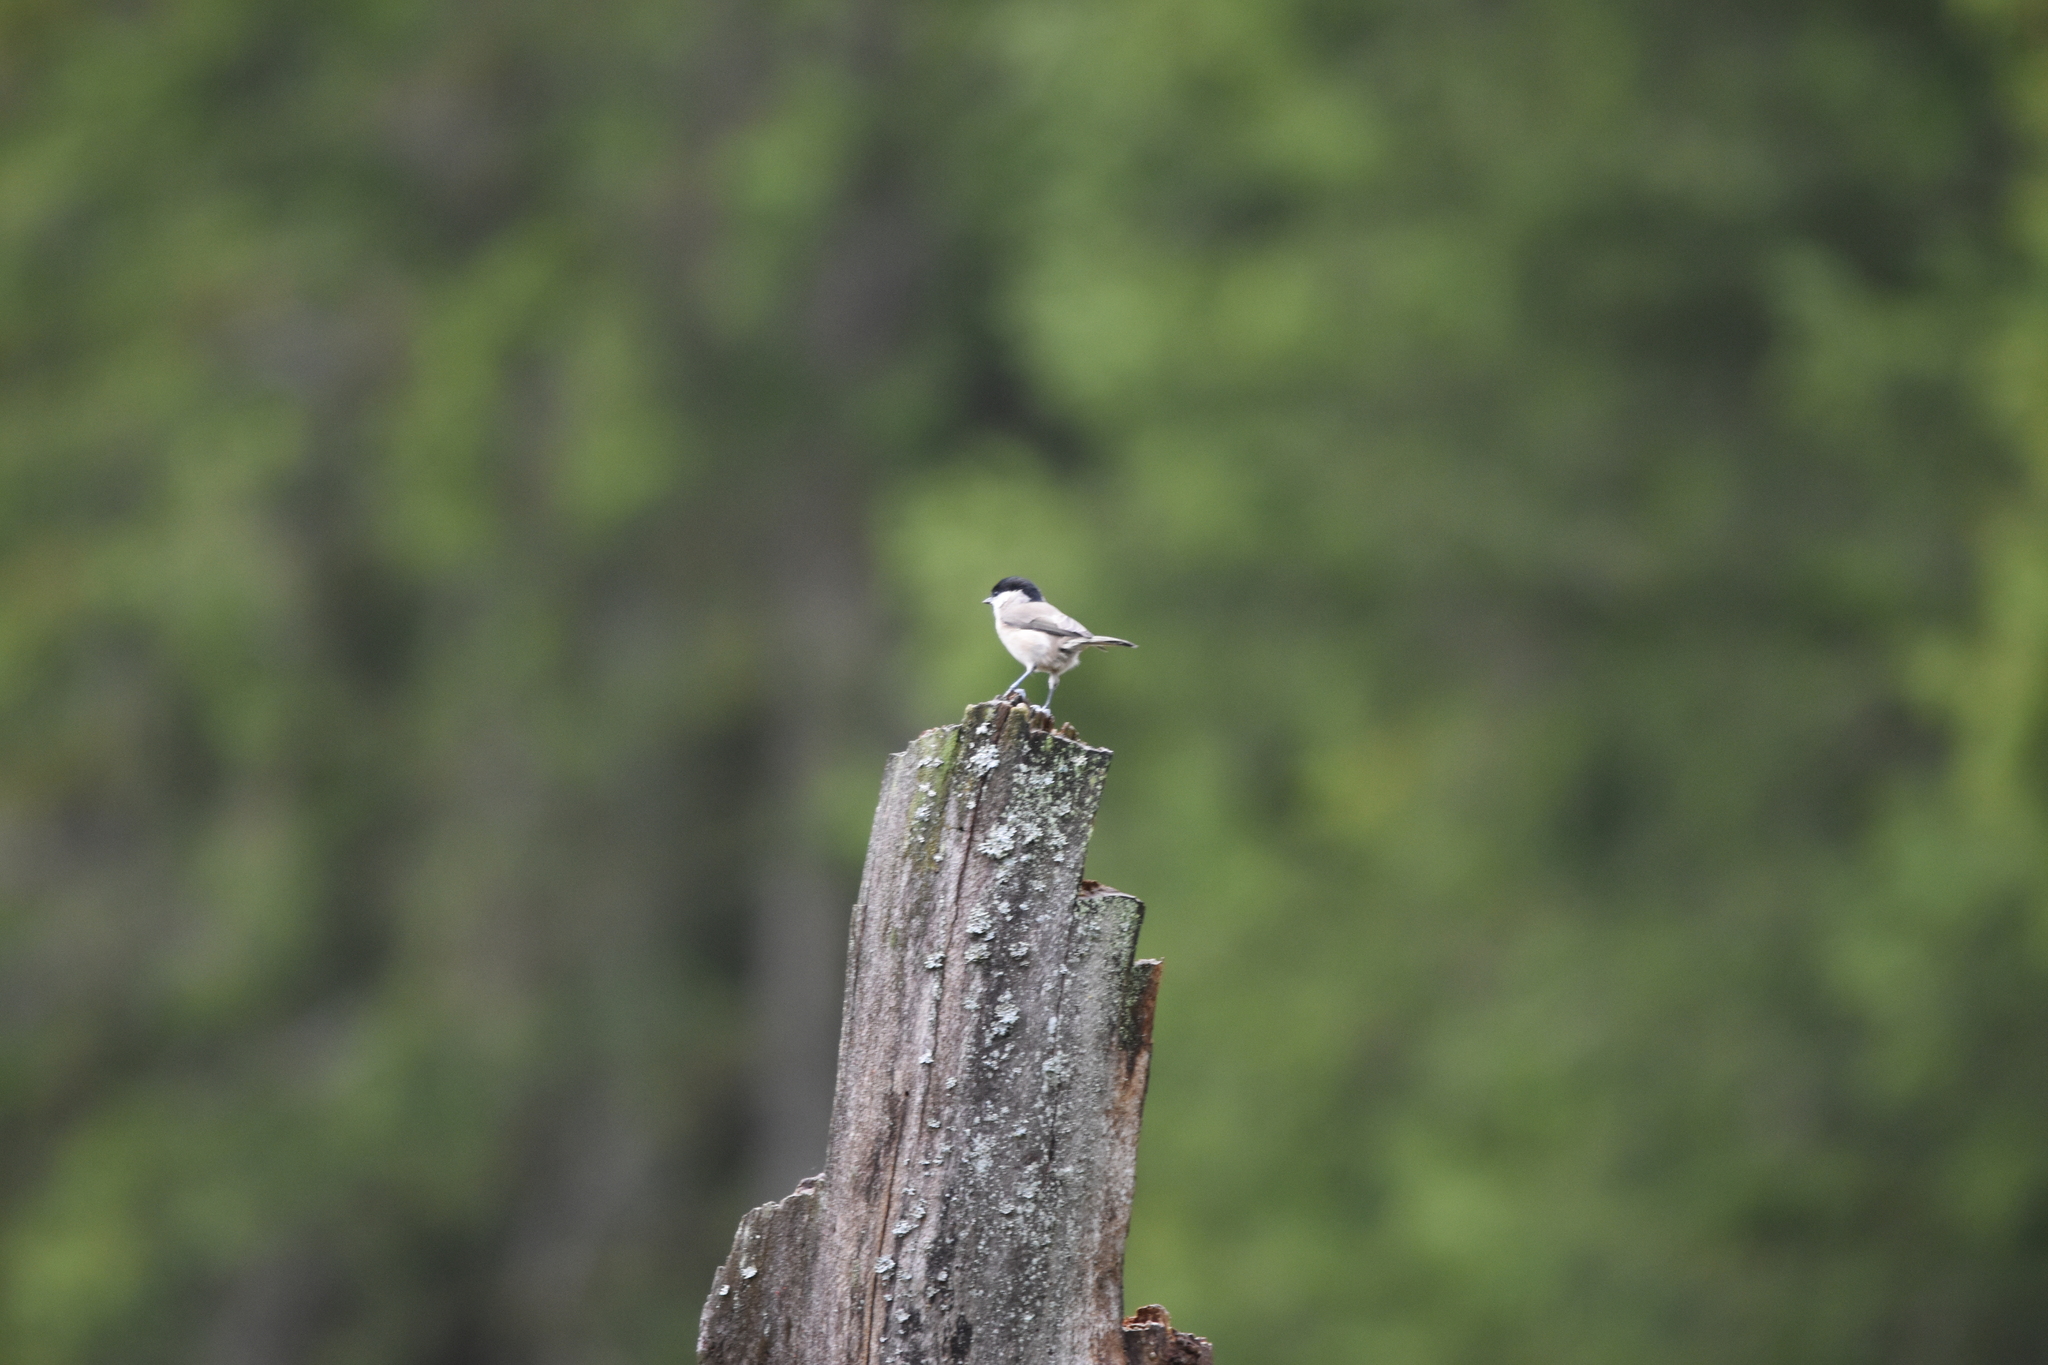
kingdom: Animalia
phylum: Chordata
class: Aves
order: Passeriformes
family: Paridae
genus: Poecile
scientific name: Poecile palustris
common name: Marsh tit
